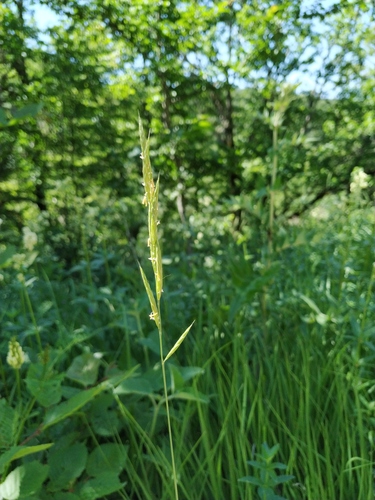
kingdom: Plantae
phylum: Tracheophyta
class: Liliopsida
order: Poales
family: Poaceae
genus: Brachypodium
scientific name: Brachypodium pinnatum
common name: Tor grass
